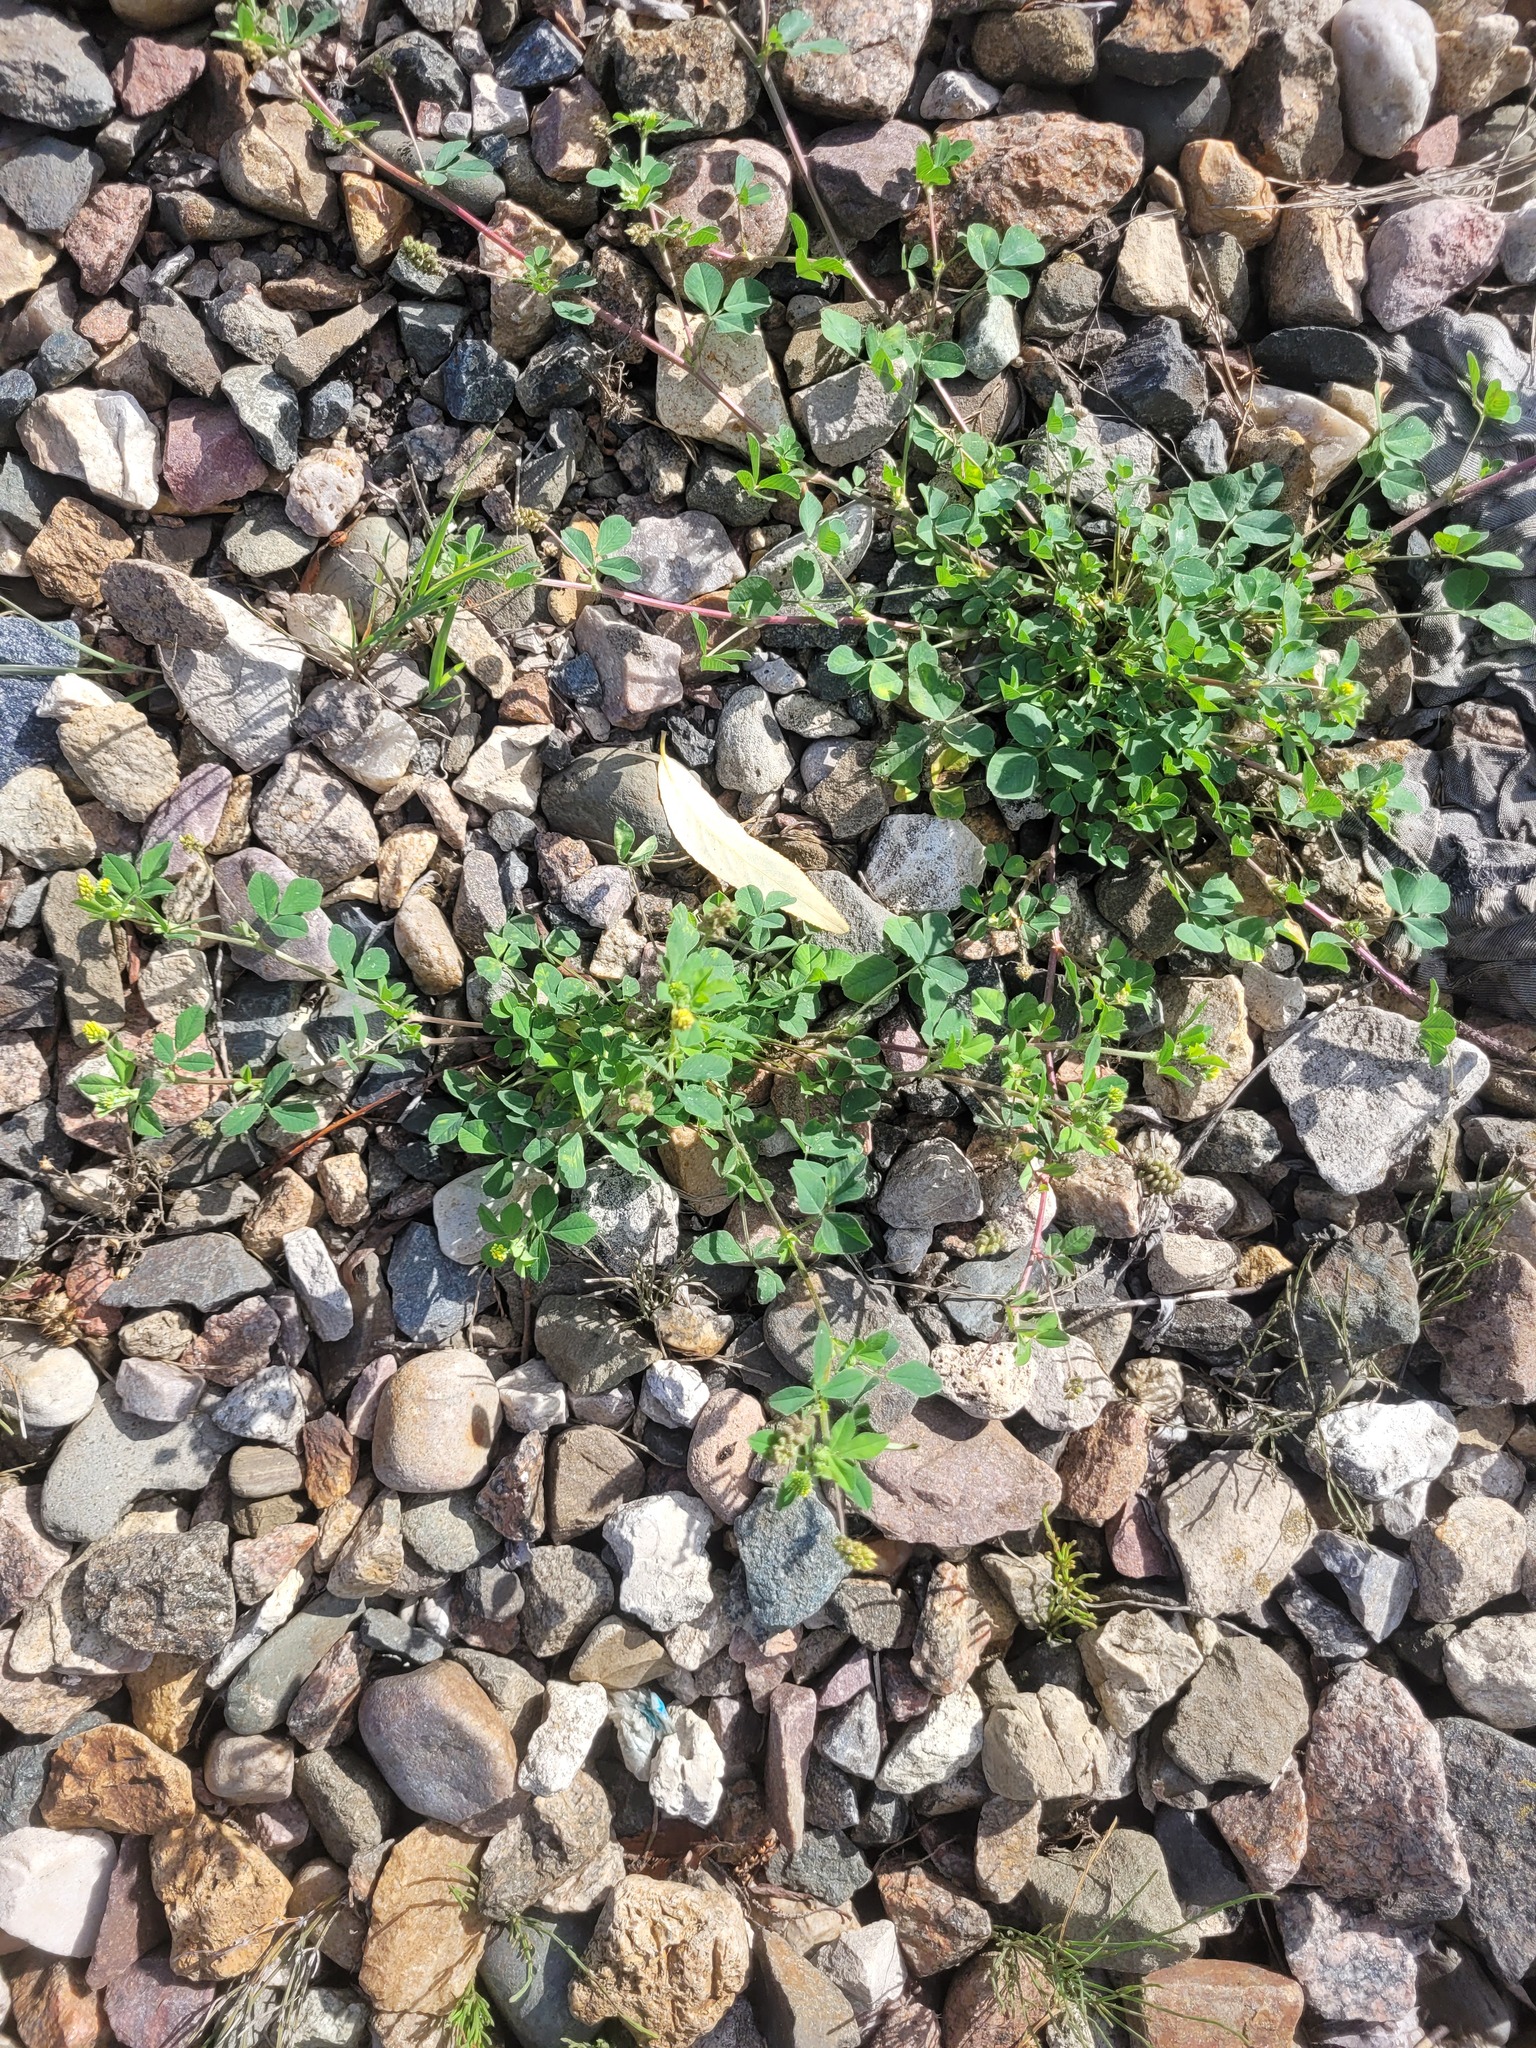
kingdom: Plantae
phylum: Tracheophyta
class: Magnoliopsida
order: Fabales
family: Fabaceae
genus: Medicago
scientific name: Medicago lupulina
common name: Black medick
